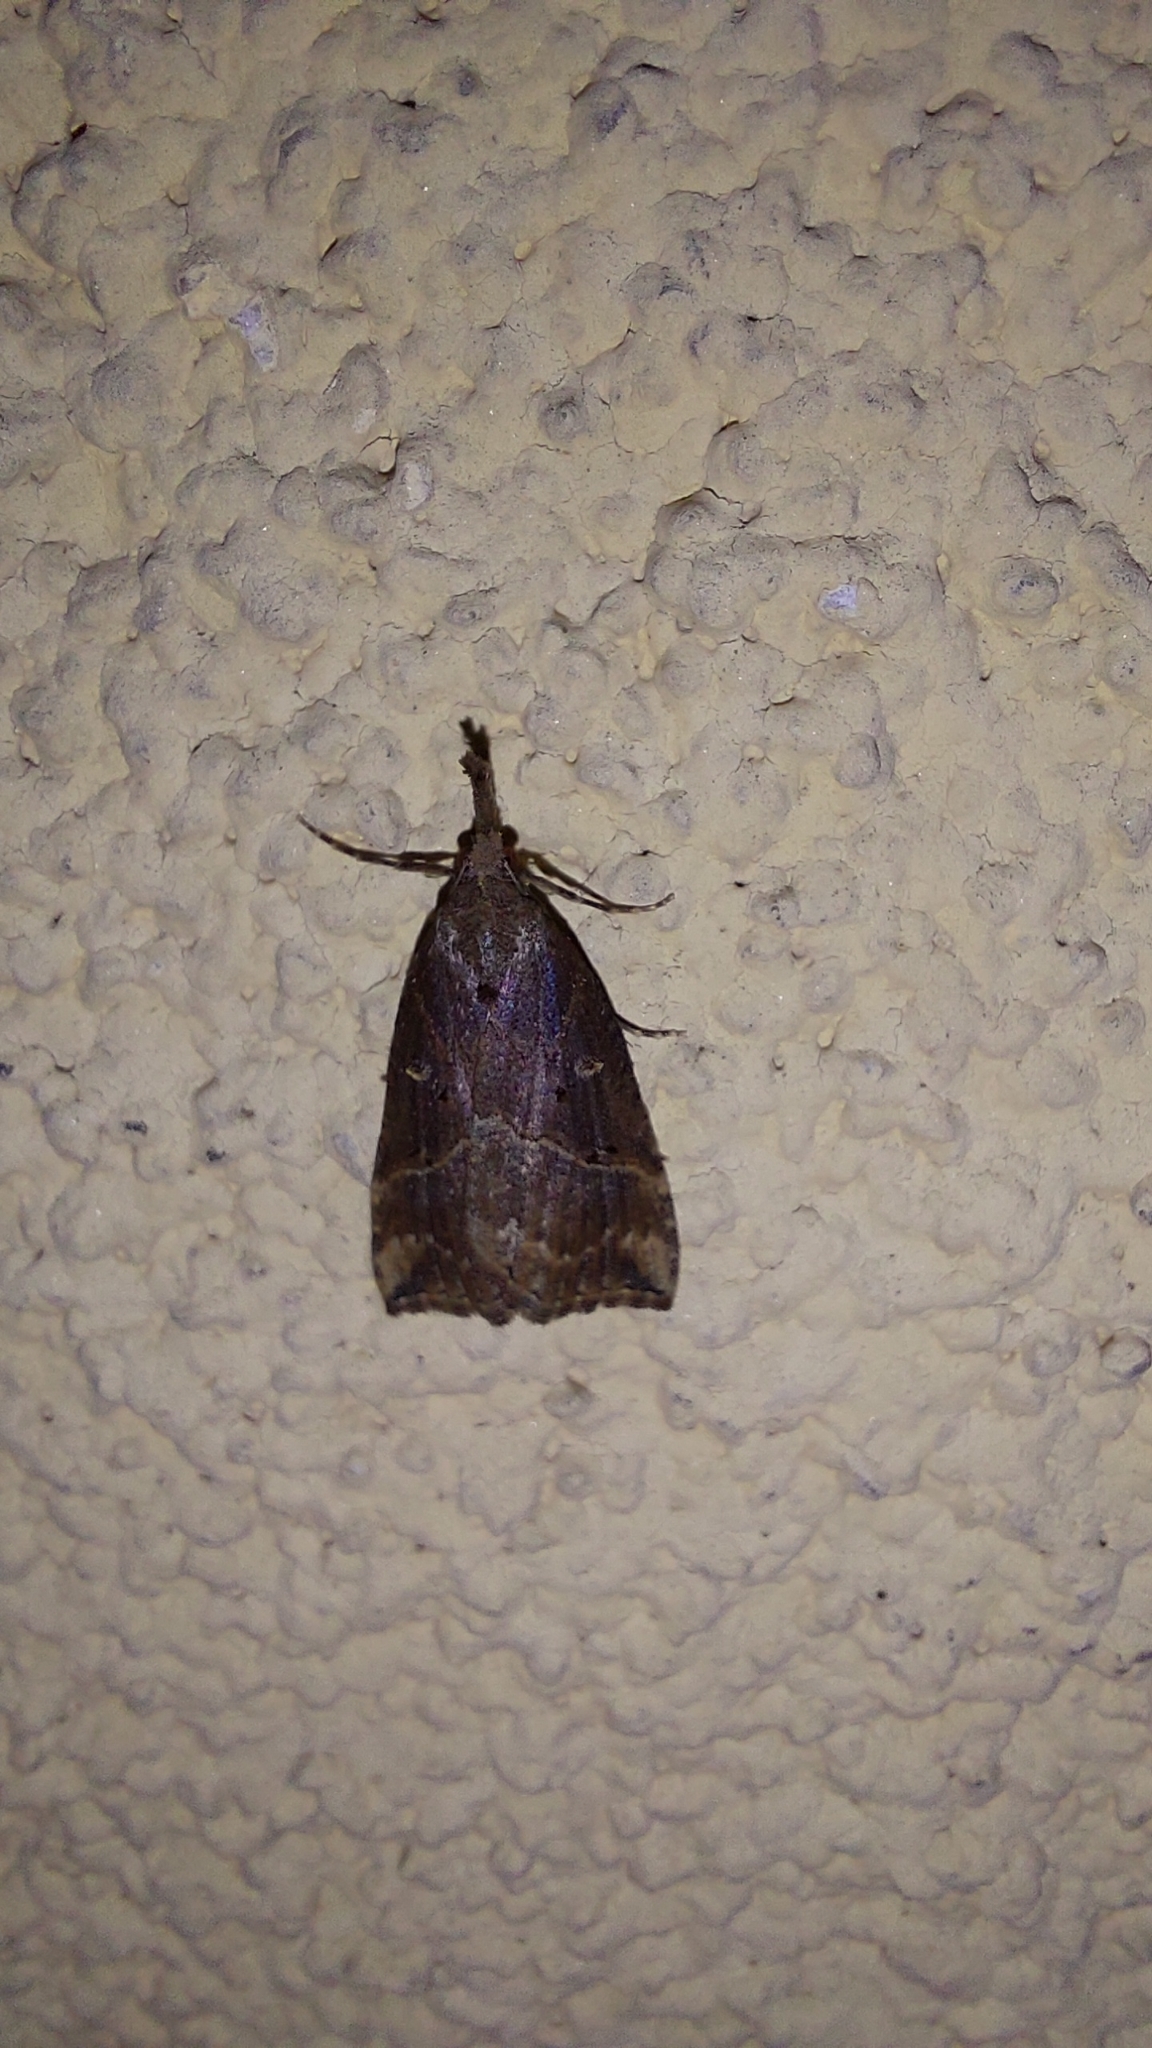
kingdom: Animalia
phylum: Arthropoda
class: Insecta
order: Lepidoptera
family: Erebidae
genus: Hypena
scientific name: Hypena rostralis
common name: Buttoned snout
